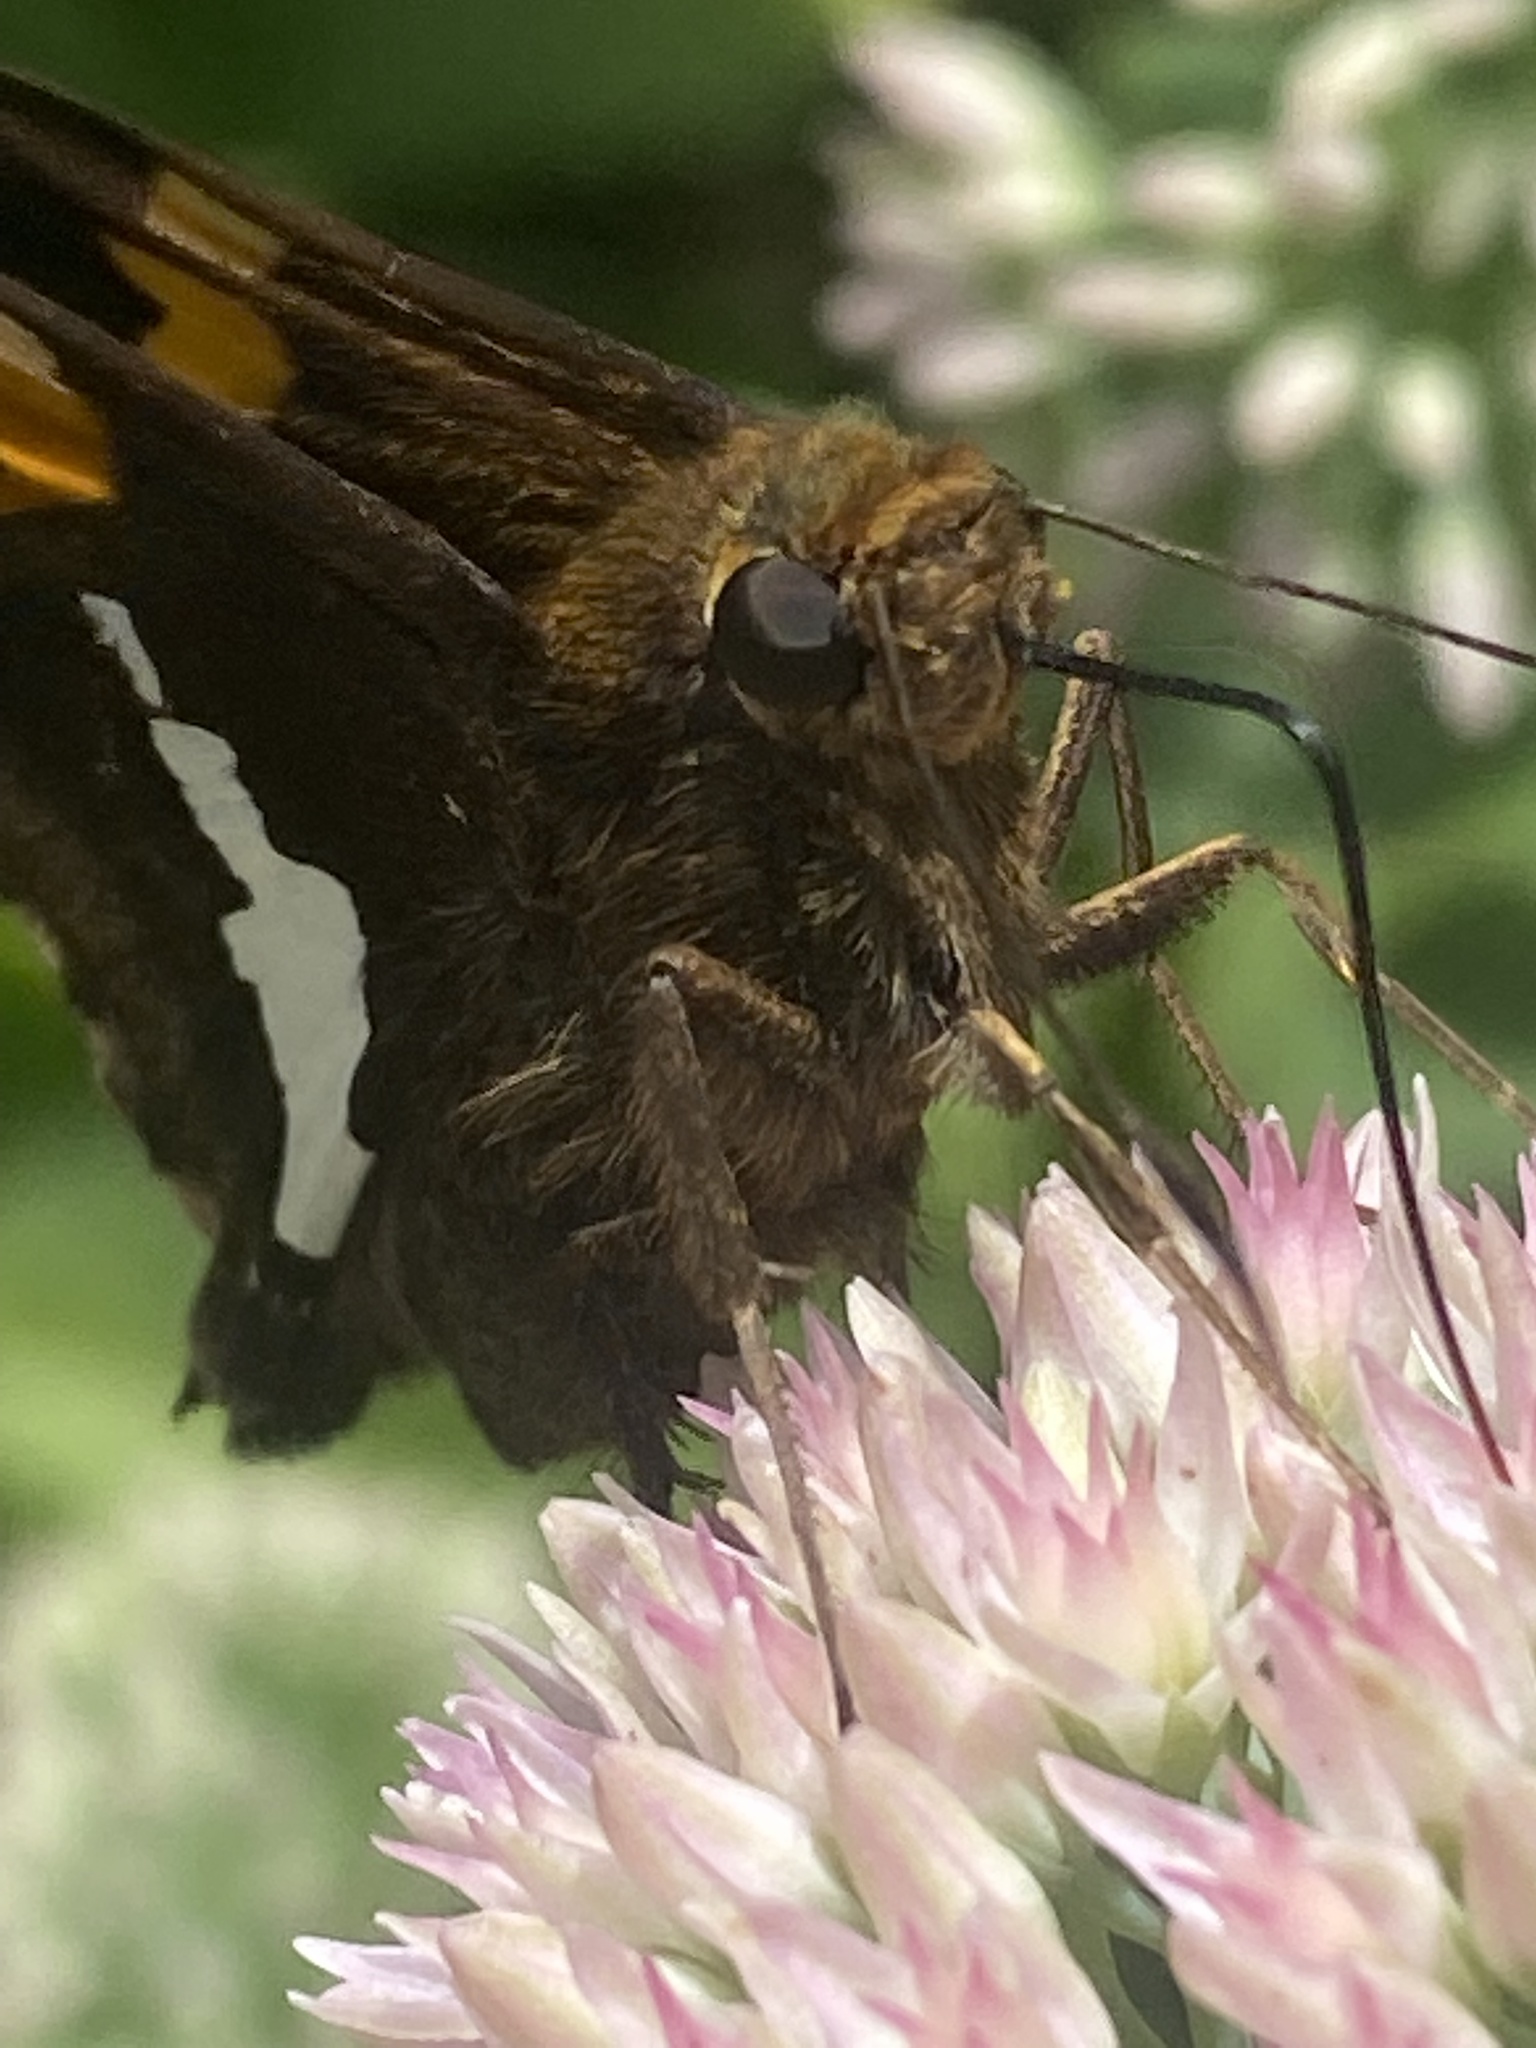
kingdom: Animalia
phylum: Arthropoda
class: Insecta
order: Lepidoptera
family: Hesperiidae
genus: Atalopedes
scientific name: Atalopedes
